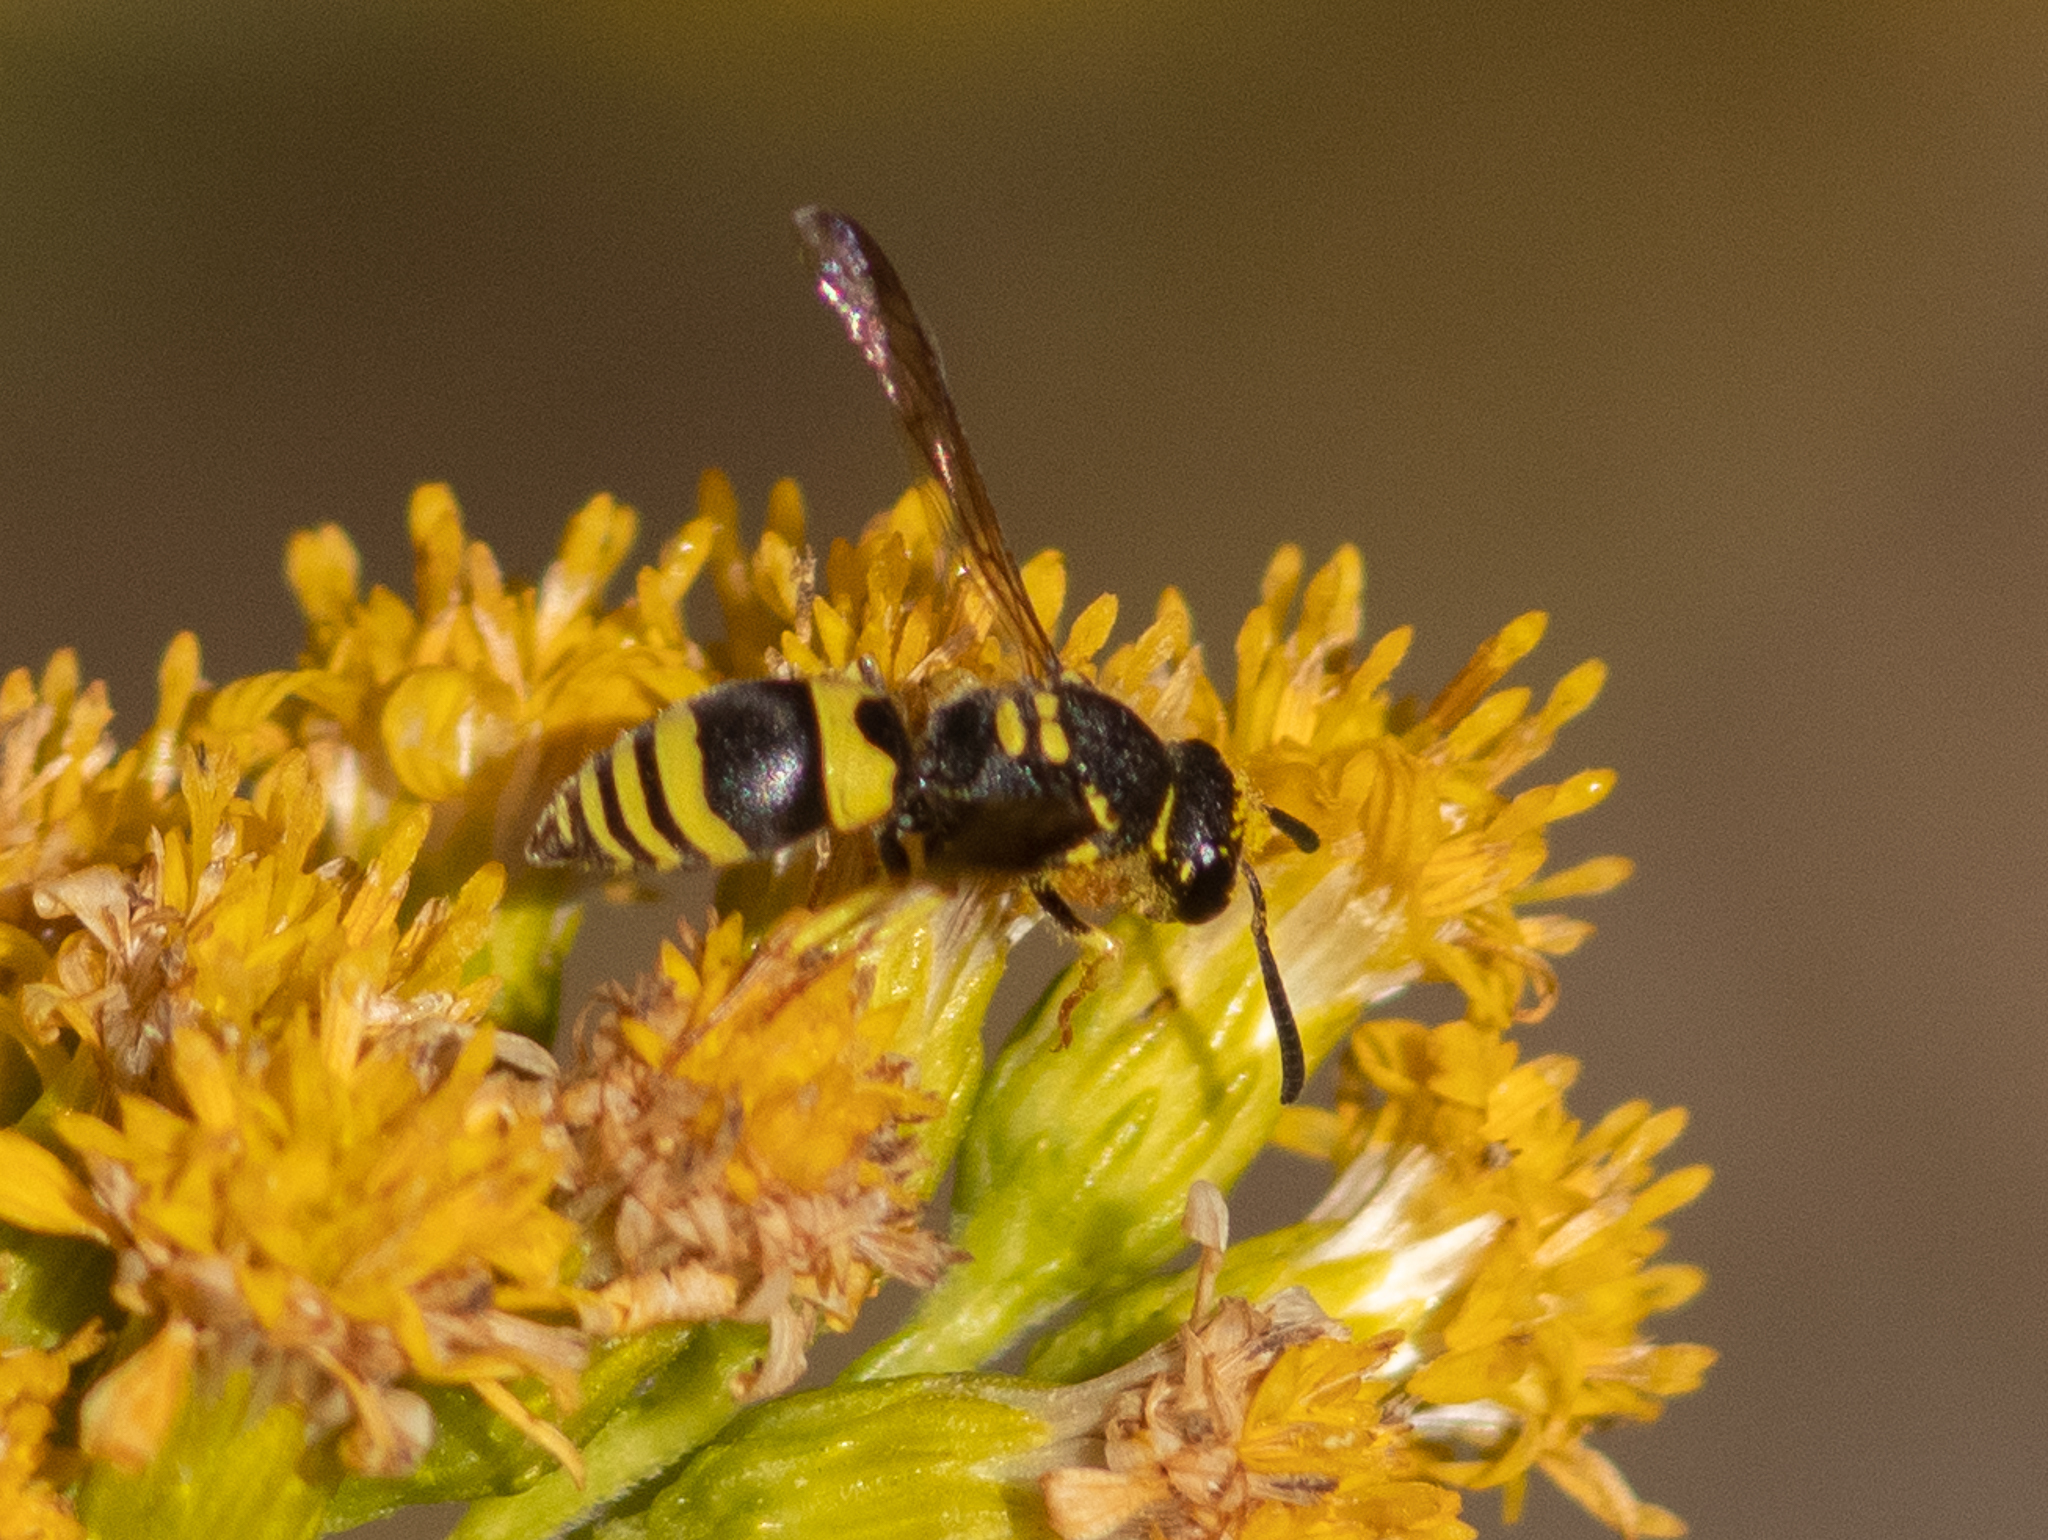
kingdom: Animalia
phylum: Arthropoda
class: Insecta
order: Hymenoptera
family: Vespidae
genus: Ancistrocerus
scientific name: Ancistrocerus gazella
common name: European tube wasp
